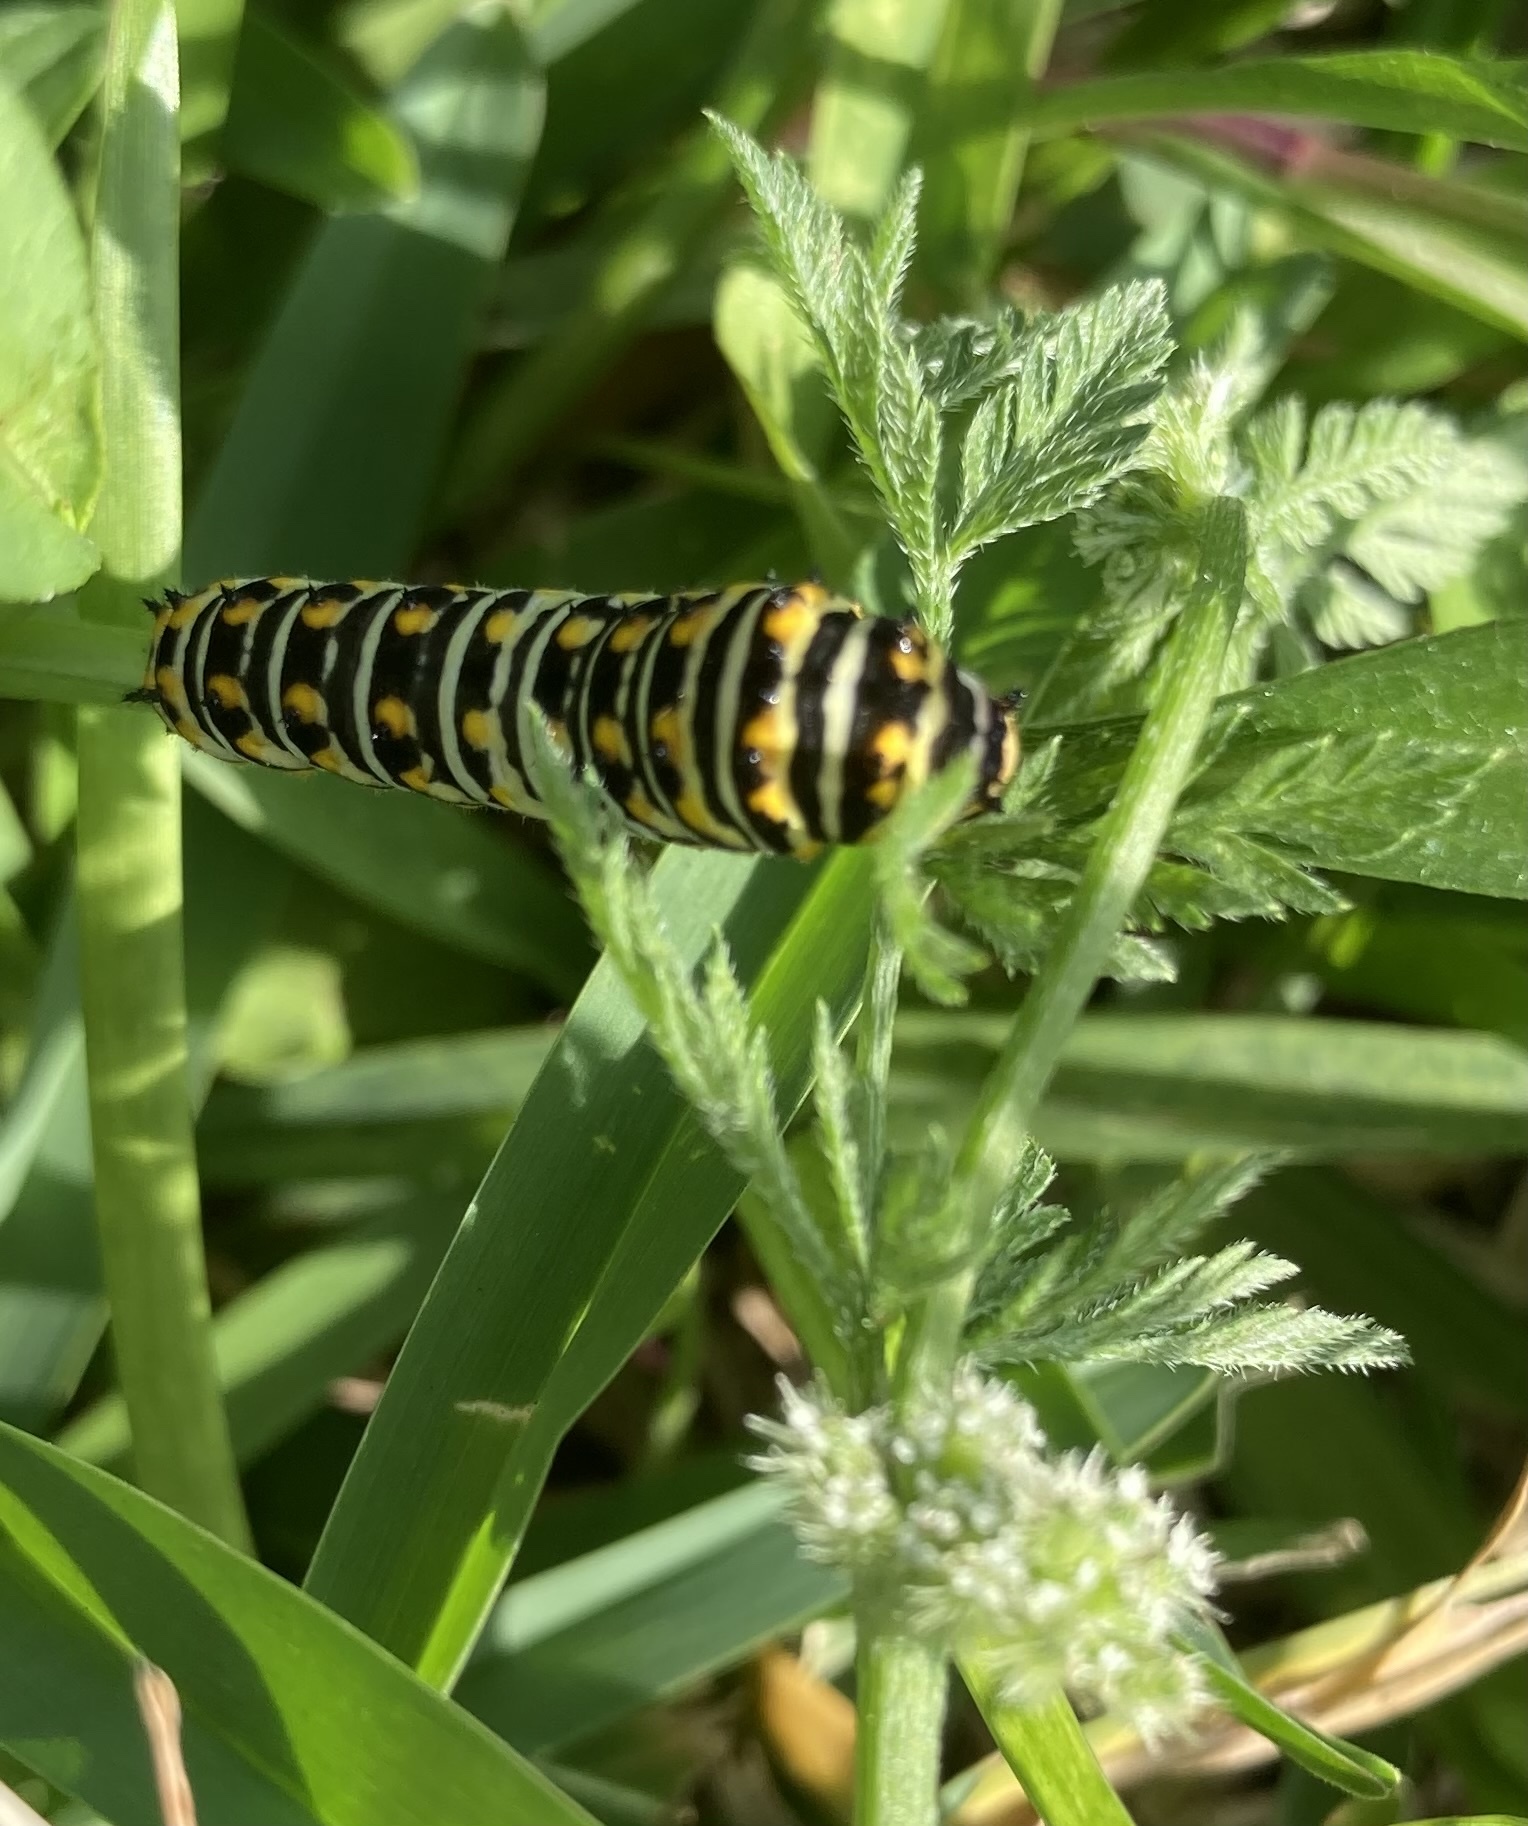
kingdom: Animalia
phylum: Arthropoda
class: Insecta
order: Lepidoptera
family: Papilionidae
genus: Papilio
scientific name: Papilio polyxenes
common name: Black swallowtail
